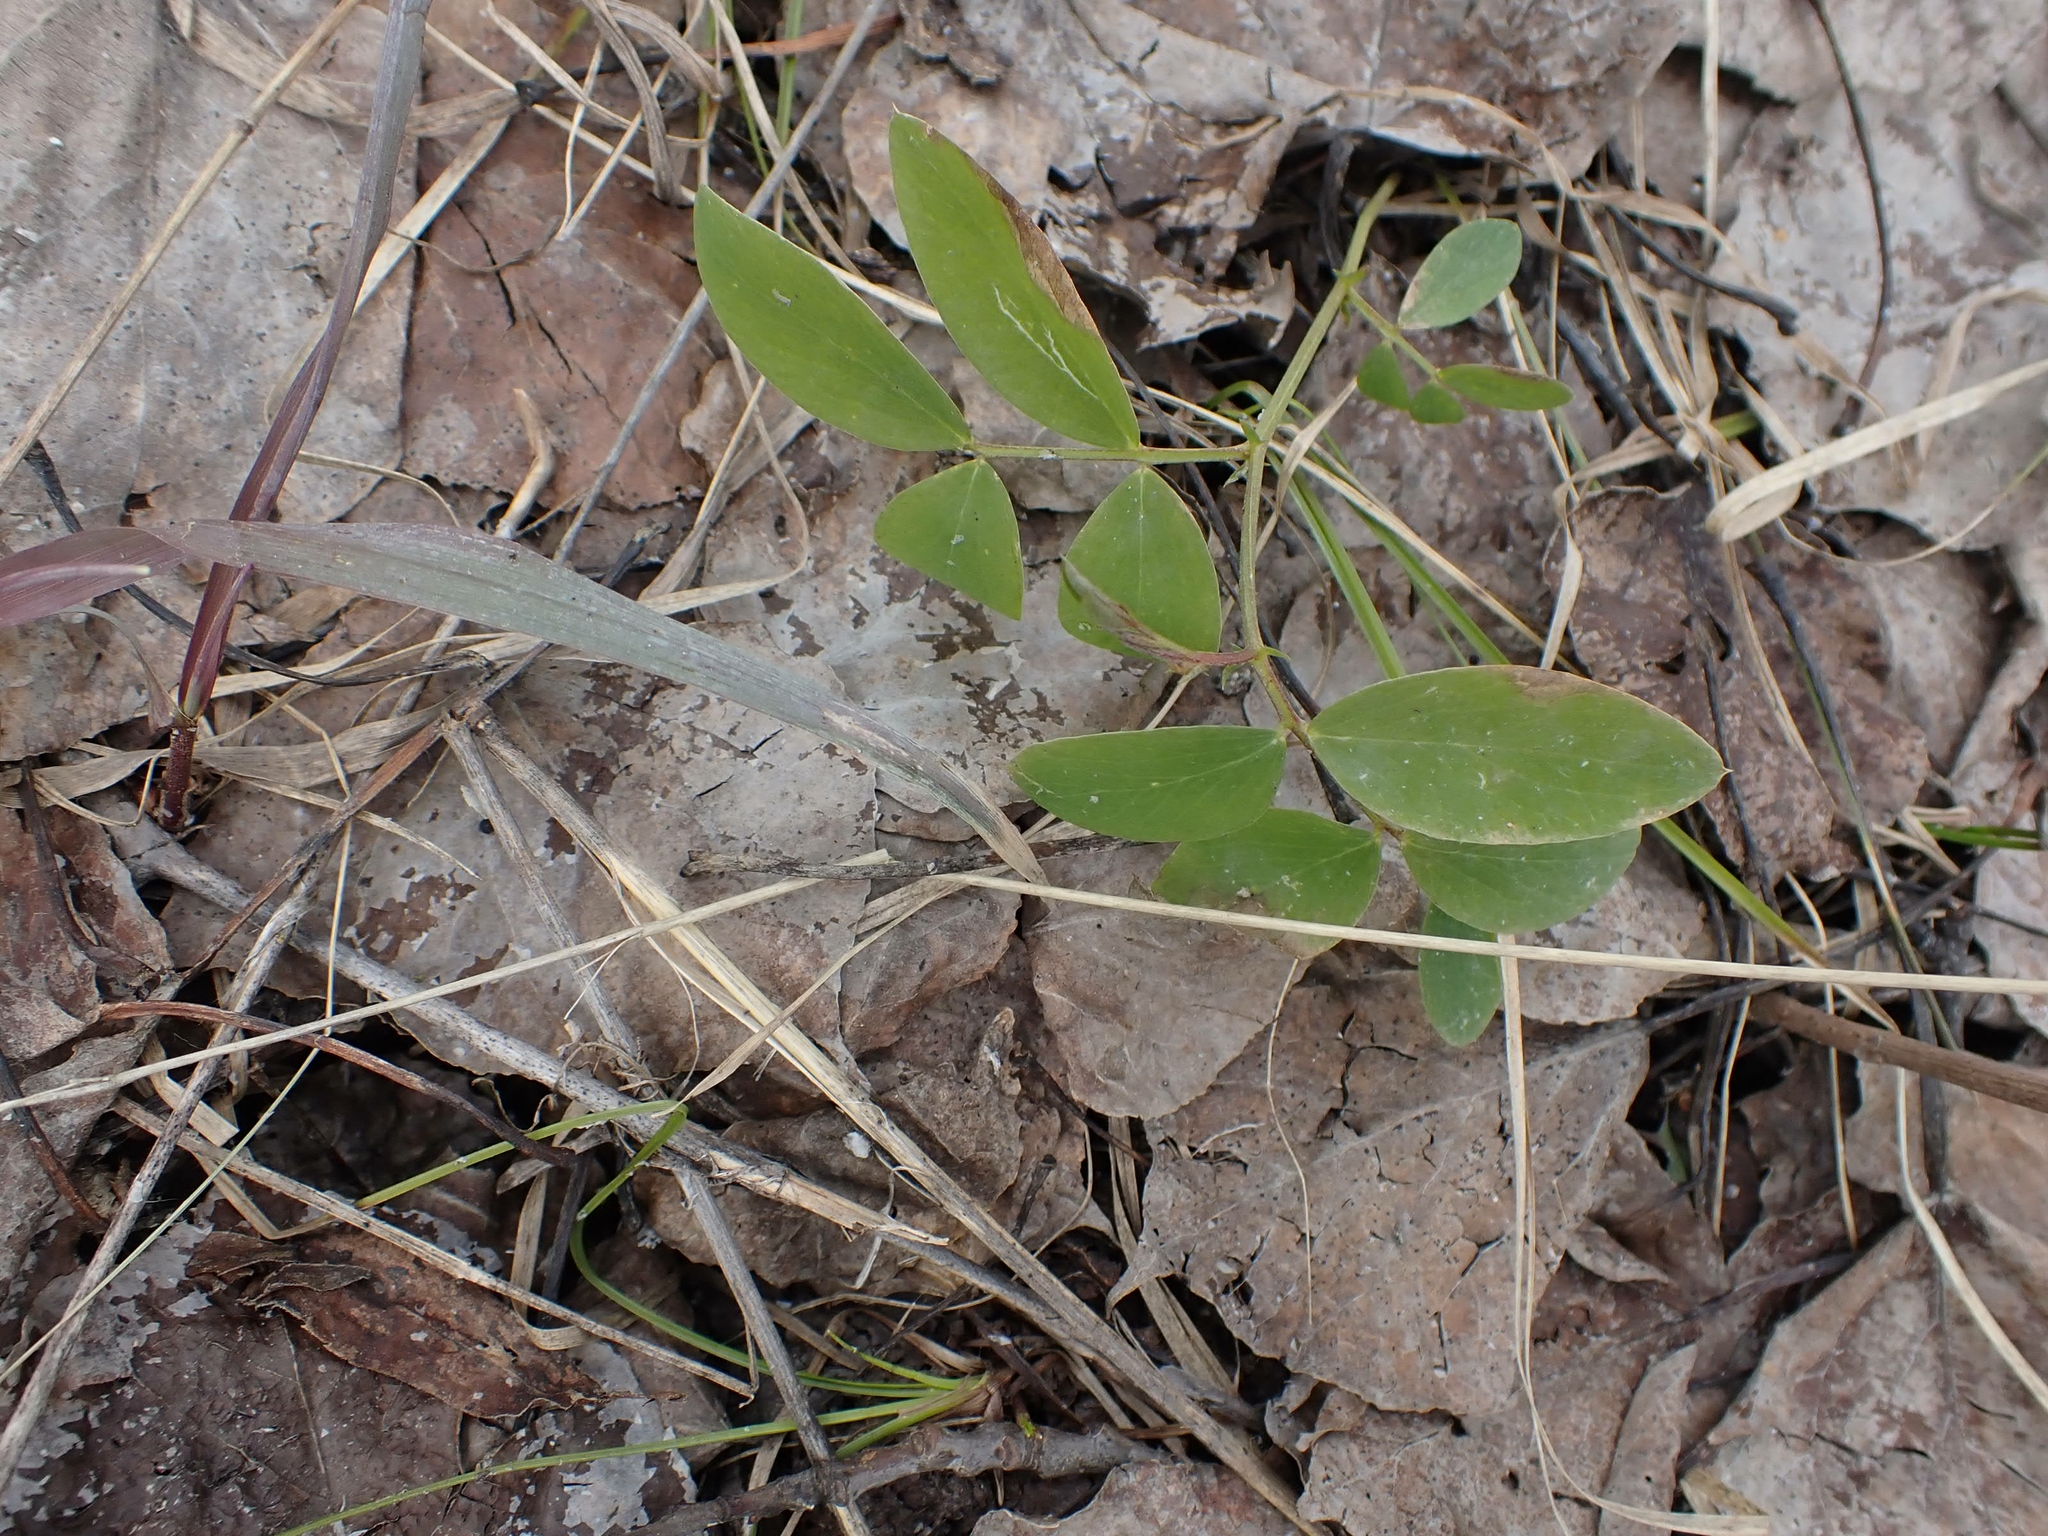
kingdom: Plantae
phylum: Tracheophyta
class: Magnoliopsida
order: Fabales
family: Fabaceae
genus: Lathyrus
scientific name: Lathyrus ochroleucus
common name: Pale vetchling
